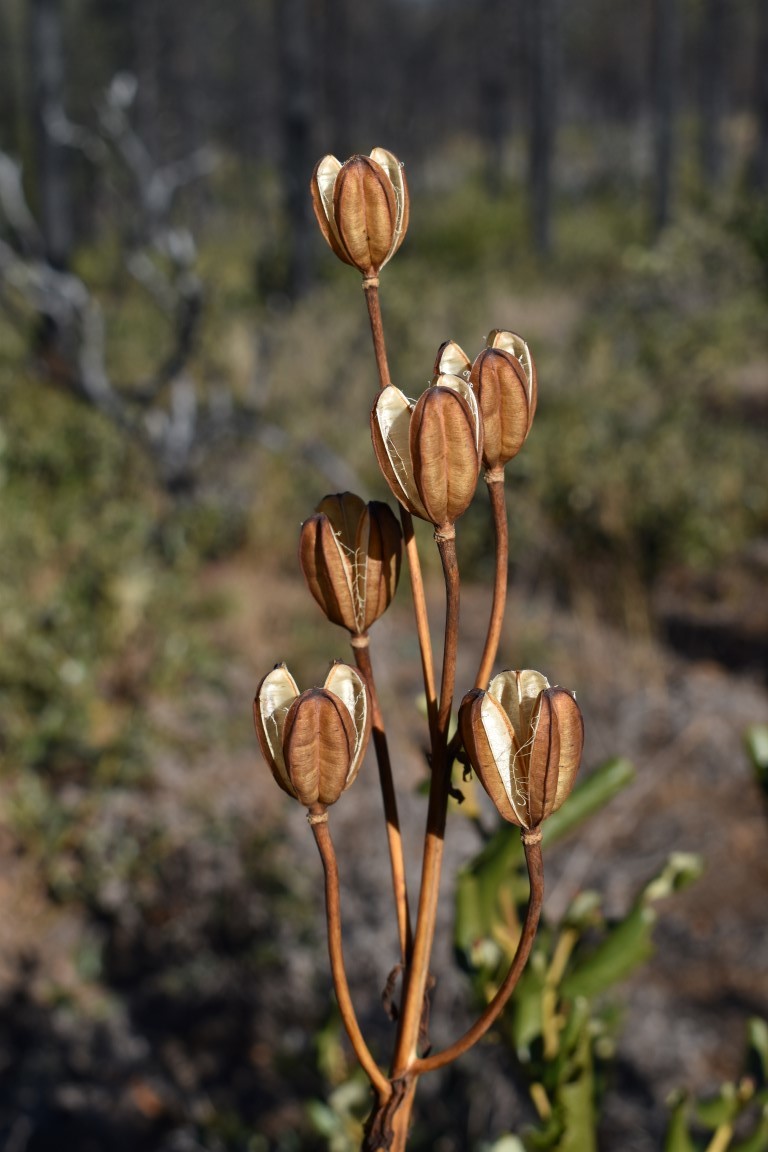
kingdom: Plantae
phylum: Tracheophyta
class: Liliopsida
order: Liliales
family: Liliaceae
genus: Lilium
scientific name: Lilium columbianum
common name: Columbia lily
